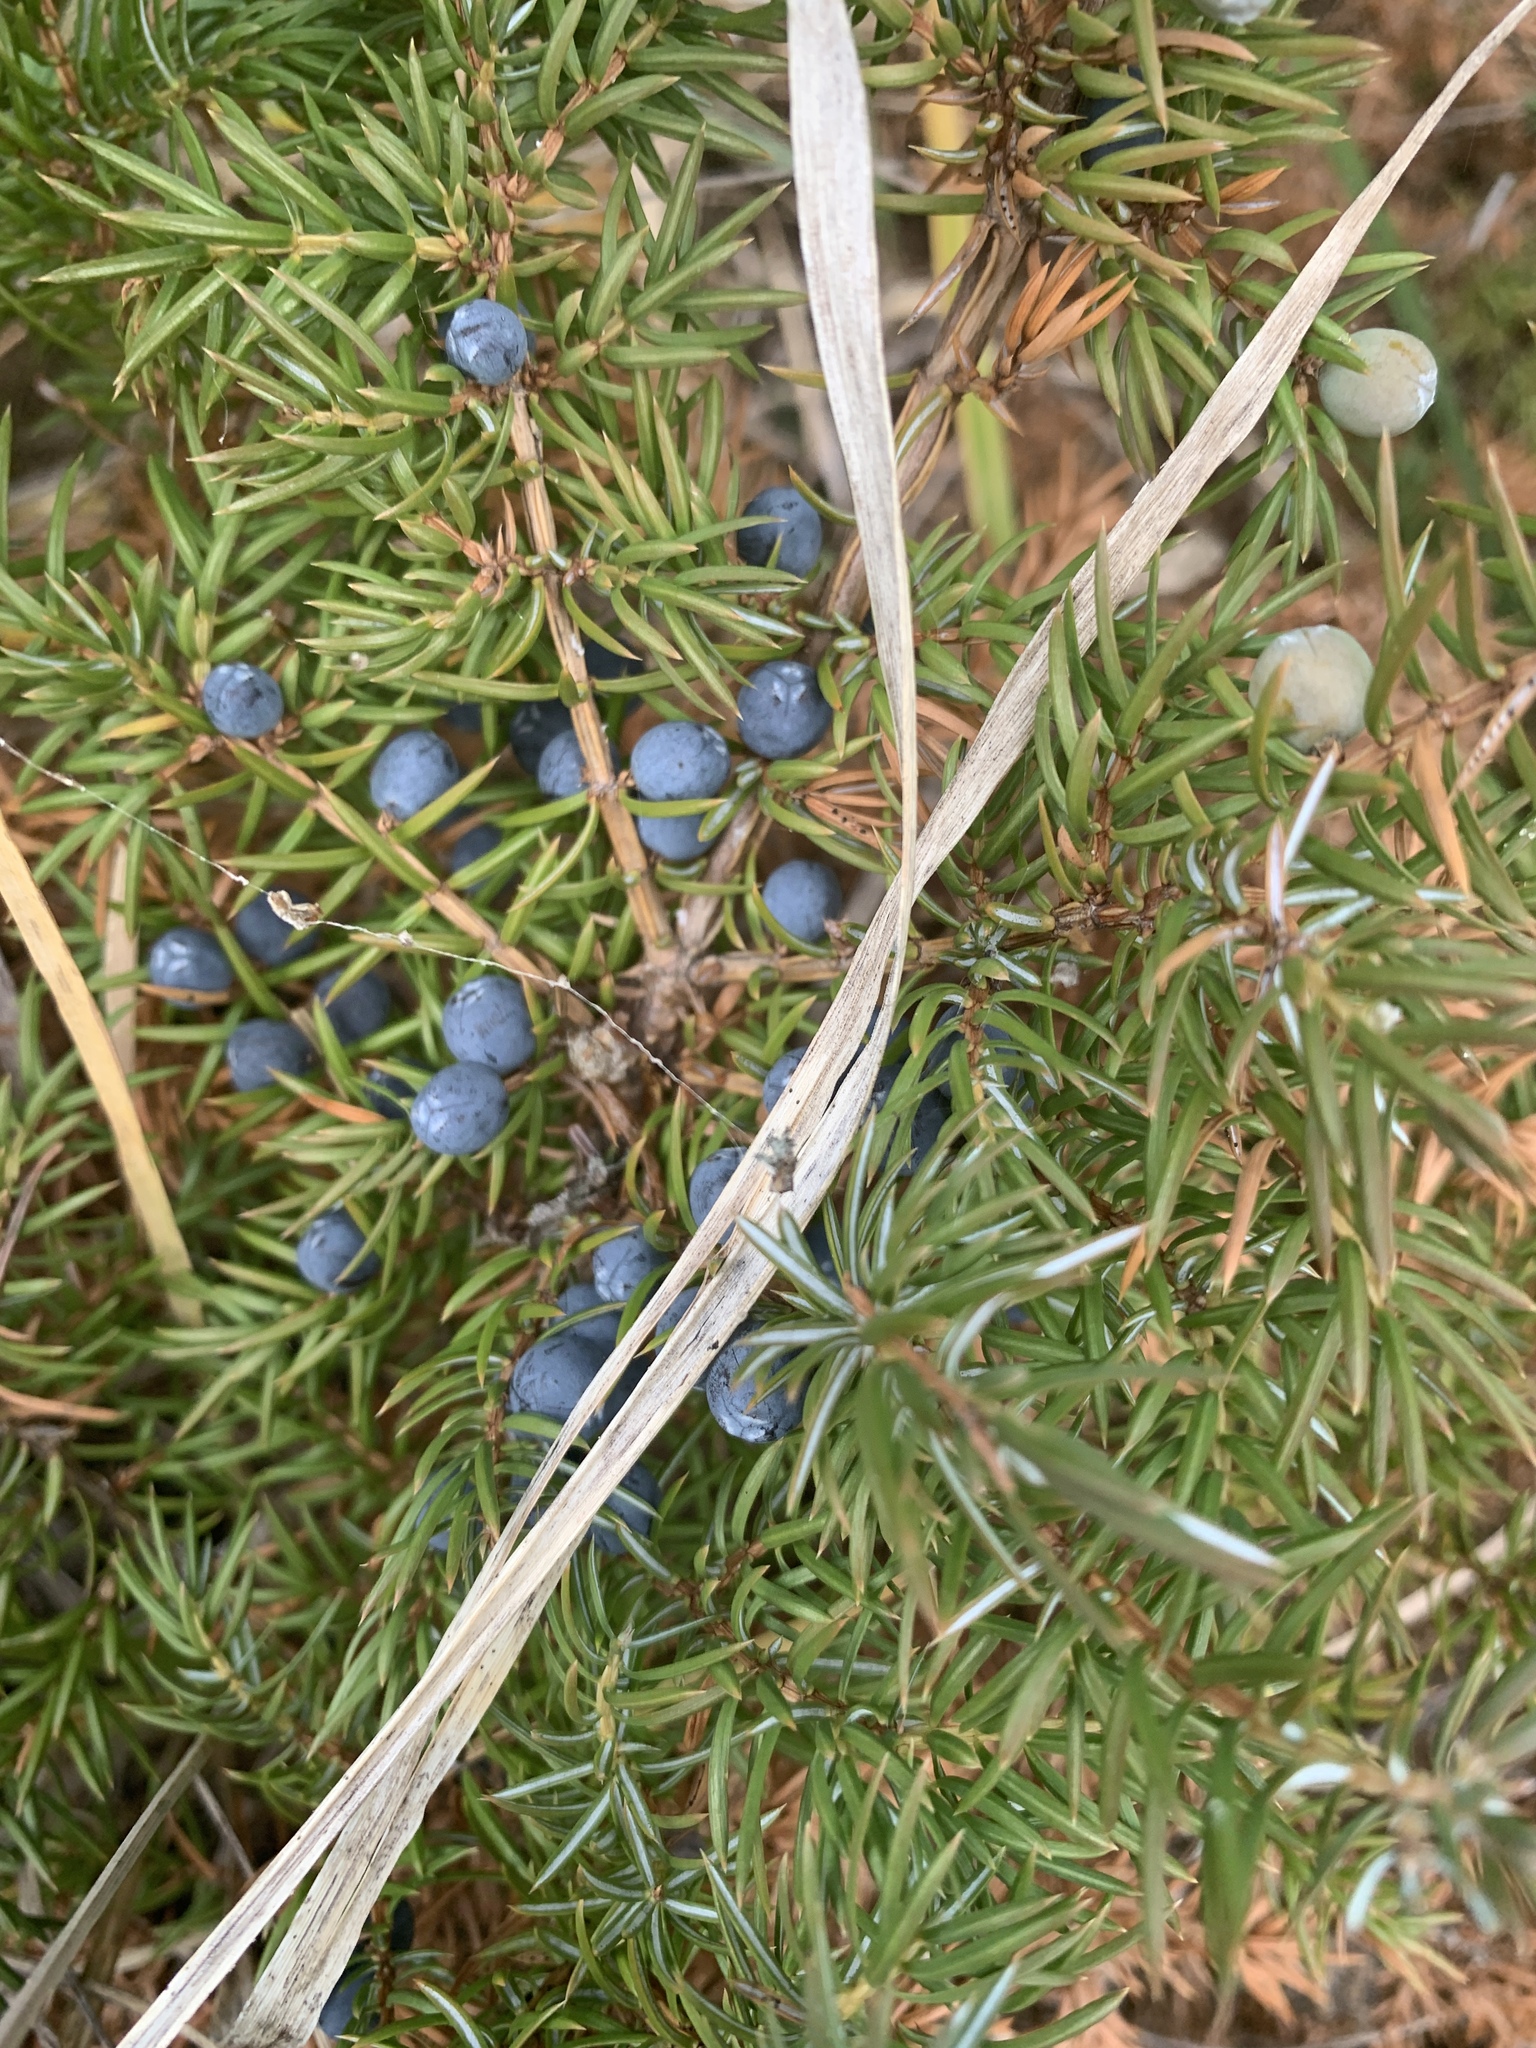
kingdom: Plantae
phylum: Tracheophyta
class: Pinopsida
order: Pinales
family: Cupressaceae
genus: Juniperus
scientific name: Juniperus communis
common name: Common juniper
